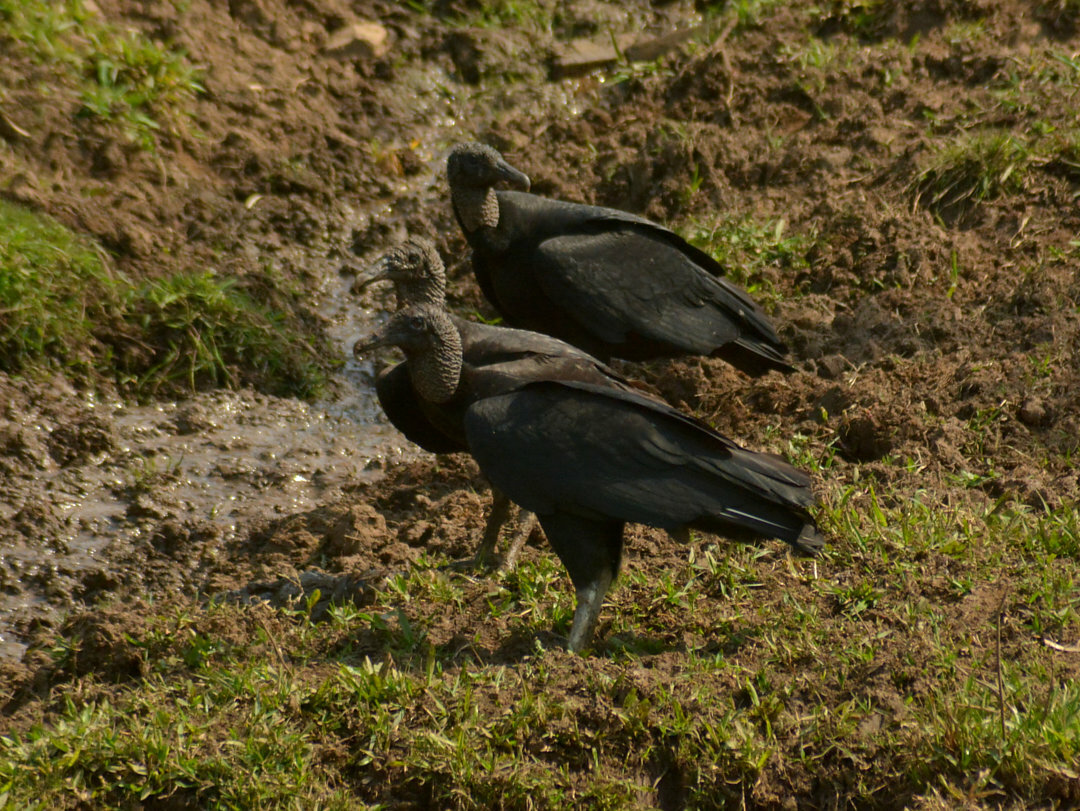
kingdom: Animalia
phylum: Chordata
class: Aves
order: Accipitriformes
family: Cathartidae
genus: Coragyps
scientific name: Coragyps atratus
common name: Black vulture
